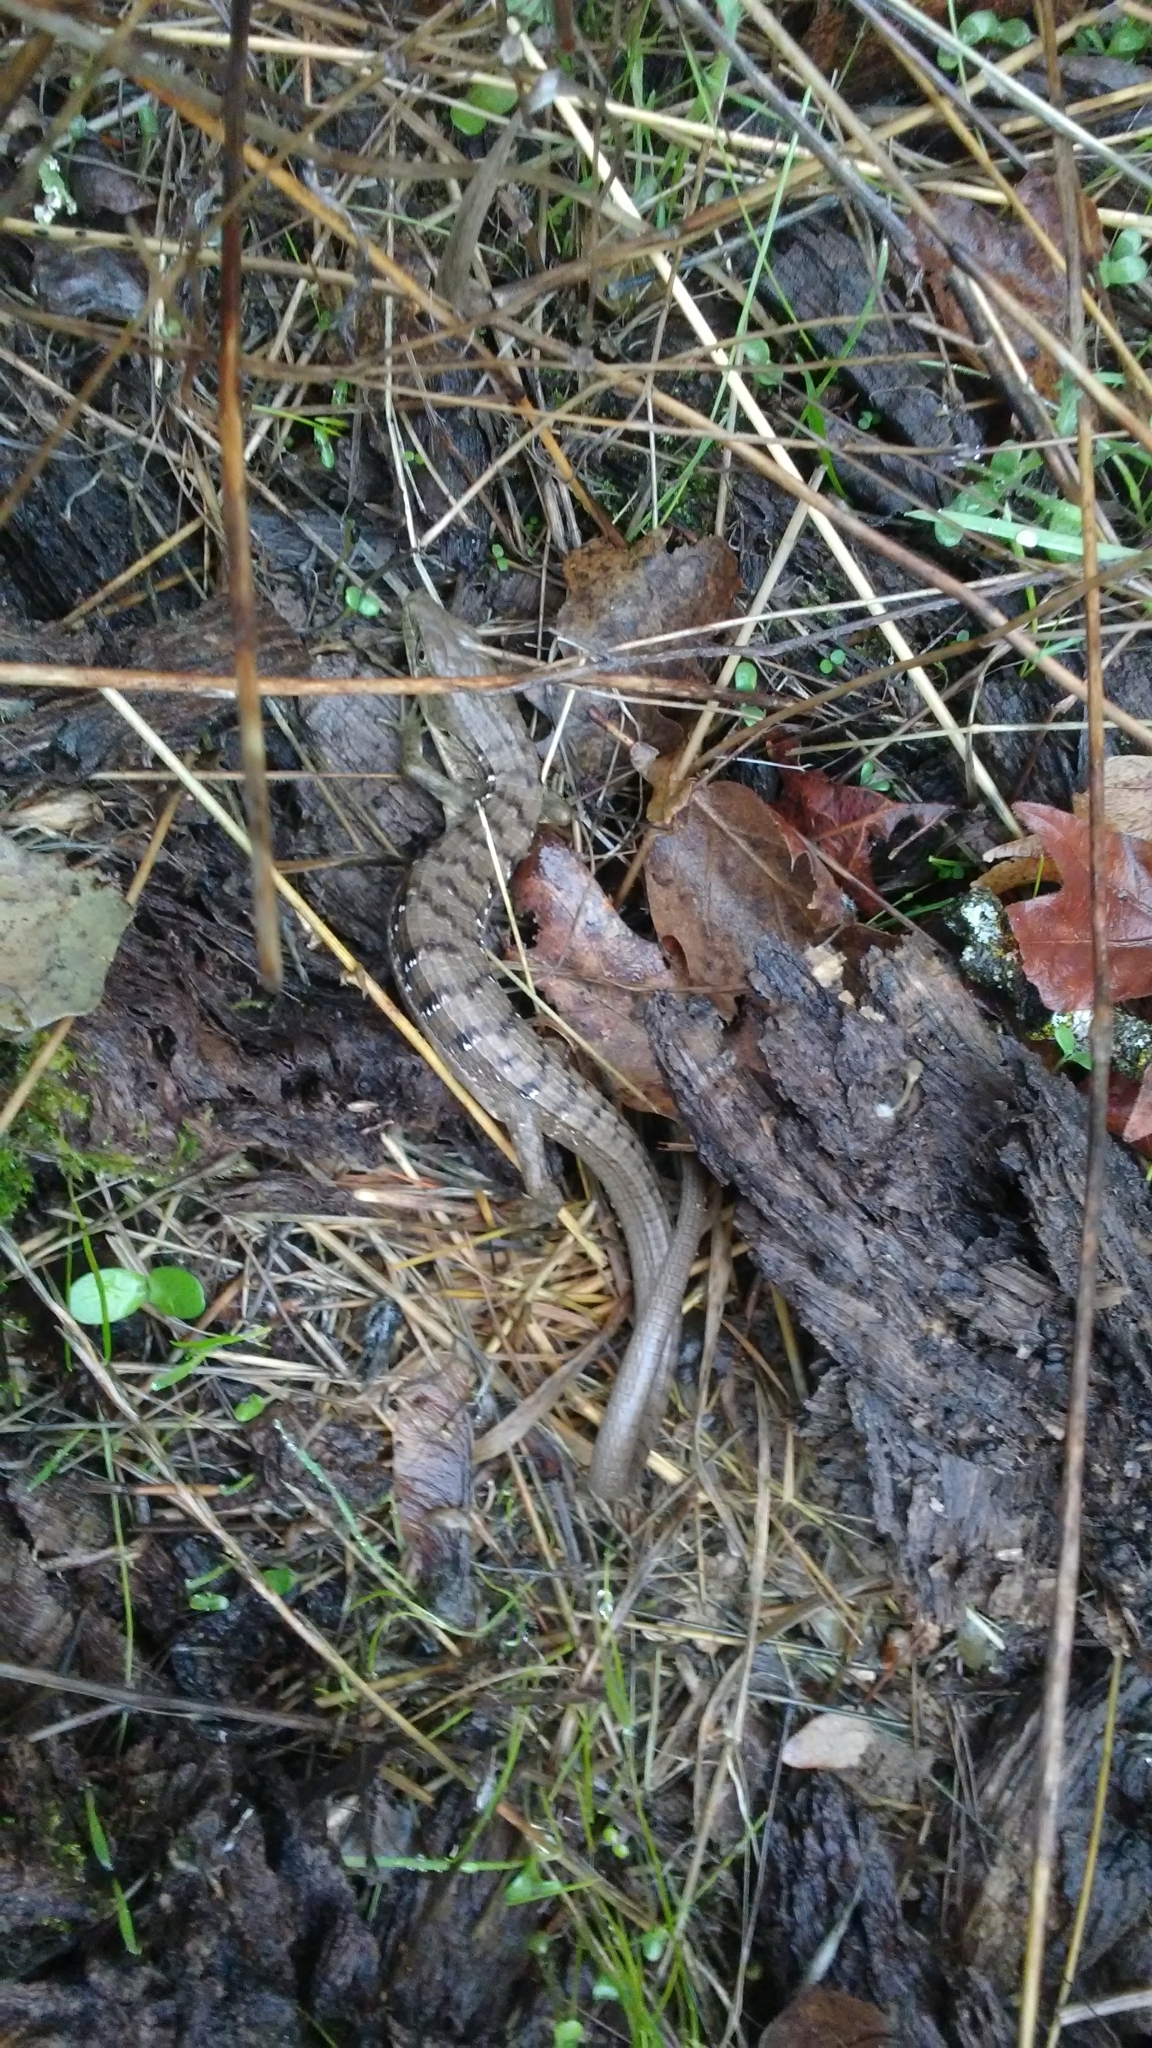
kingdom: Animalia
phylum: Chordata
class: Squamata
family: Anguidae
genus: Elgaria
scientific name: Elgaria multicarinata
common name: Southern alligator lizard
